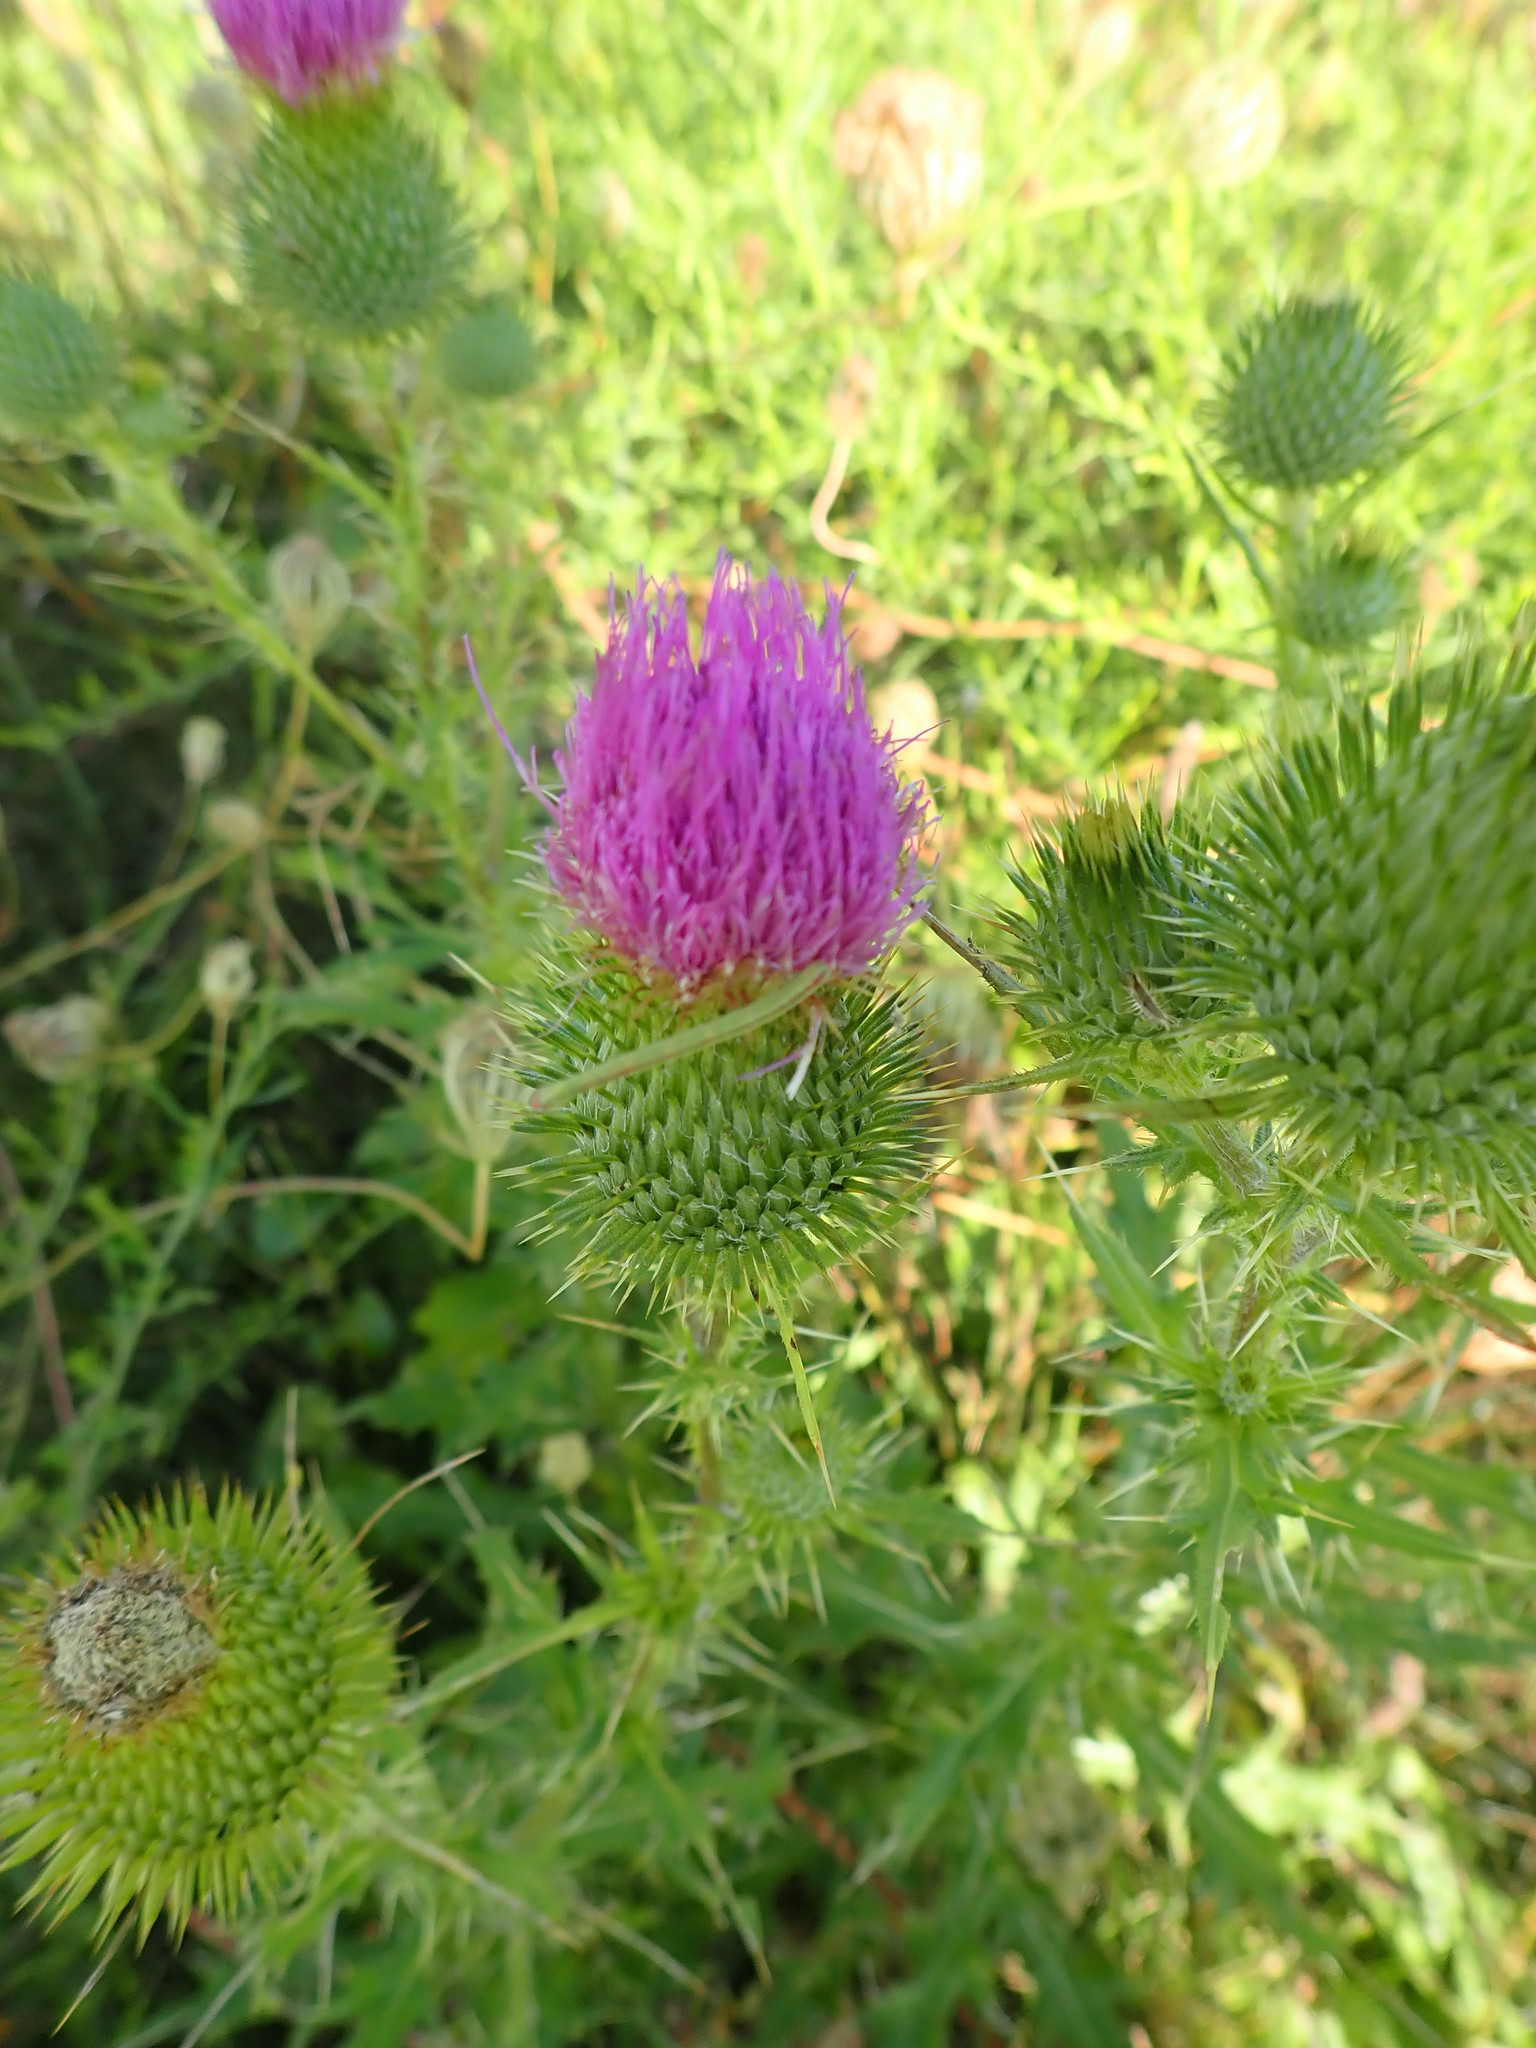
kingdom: Plantae
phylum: Tracheophyta
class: Magnoliopsida
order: Asterales
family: Asteraceae
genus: Cirsium
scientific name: Cirsium vulgare
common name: Bull thistle
